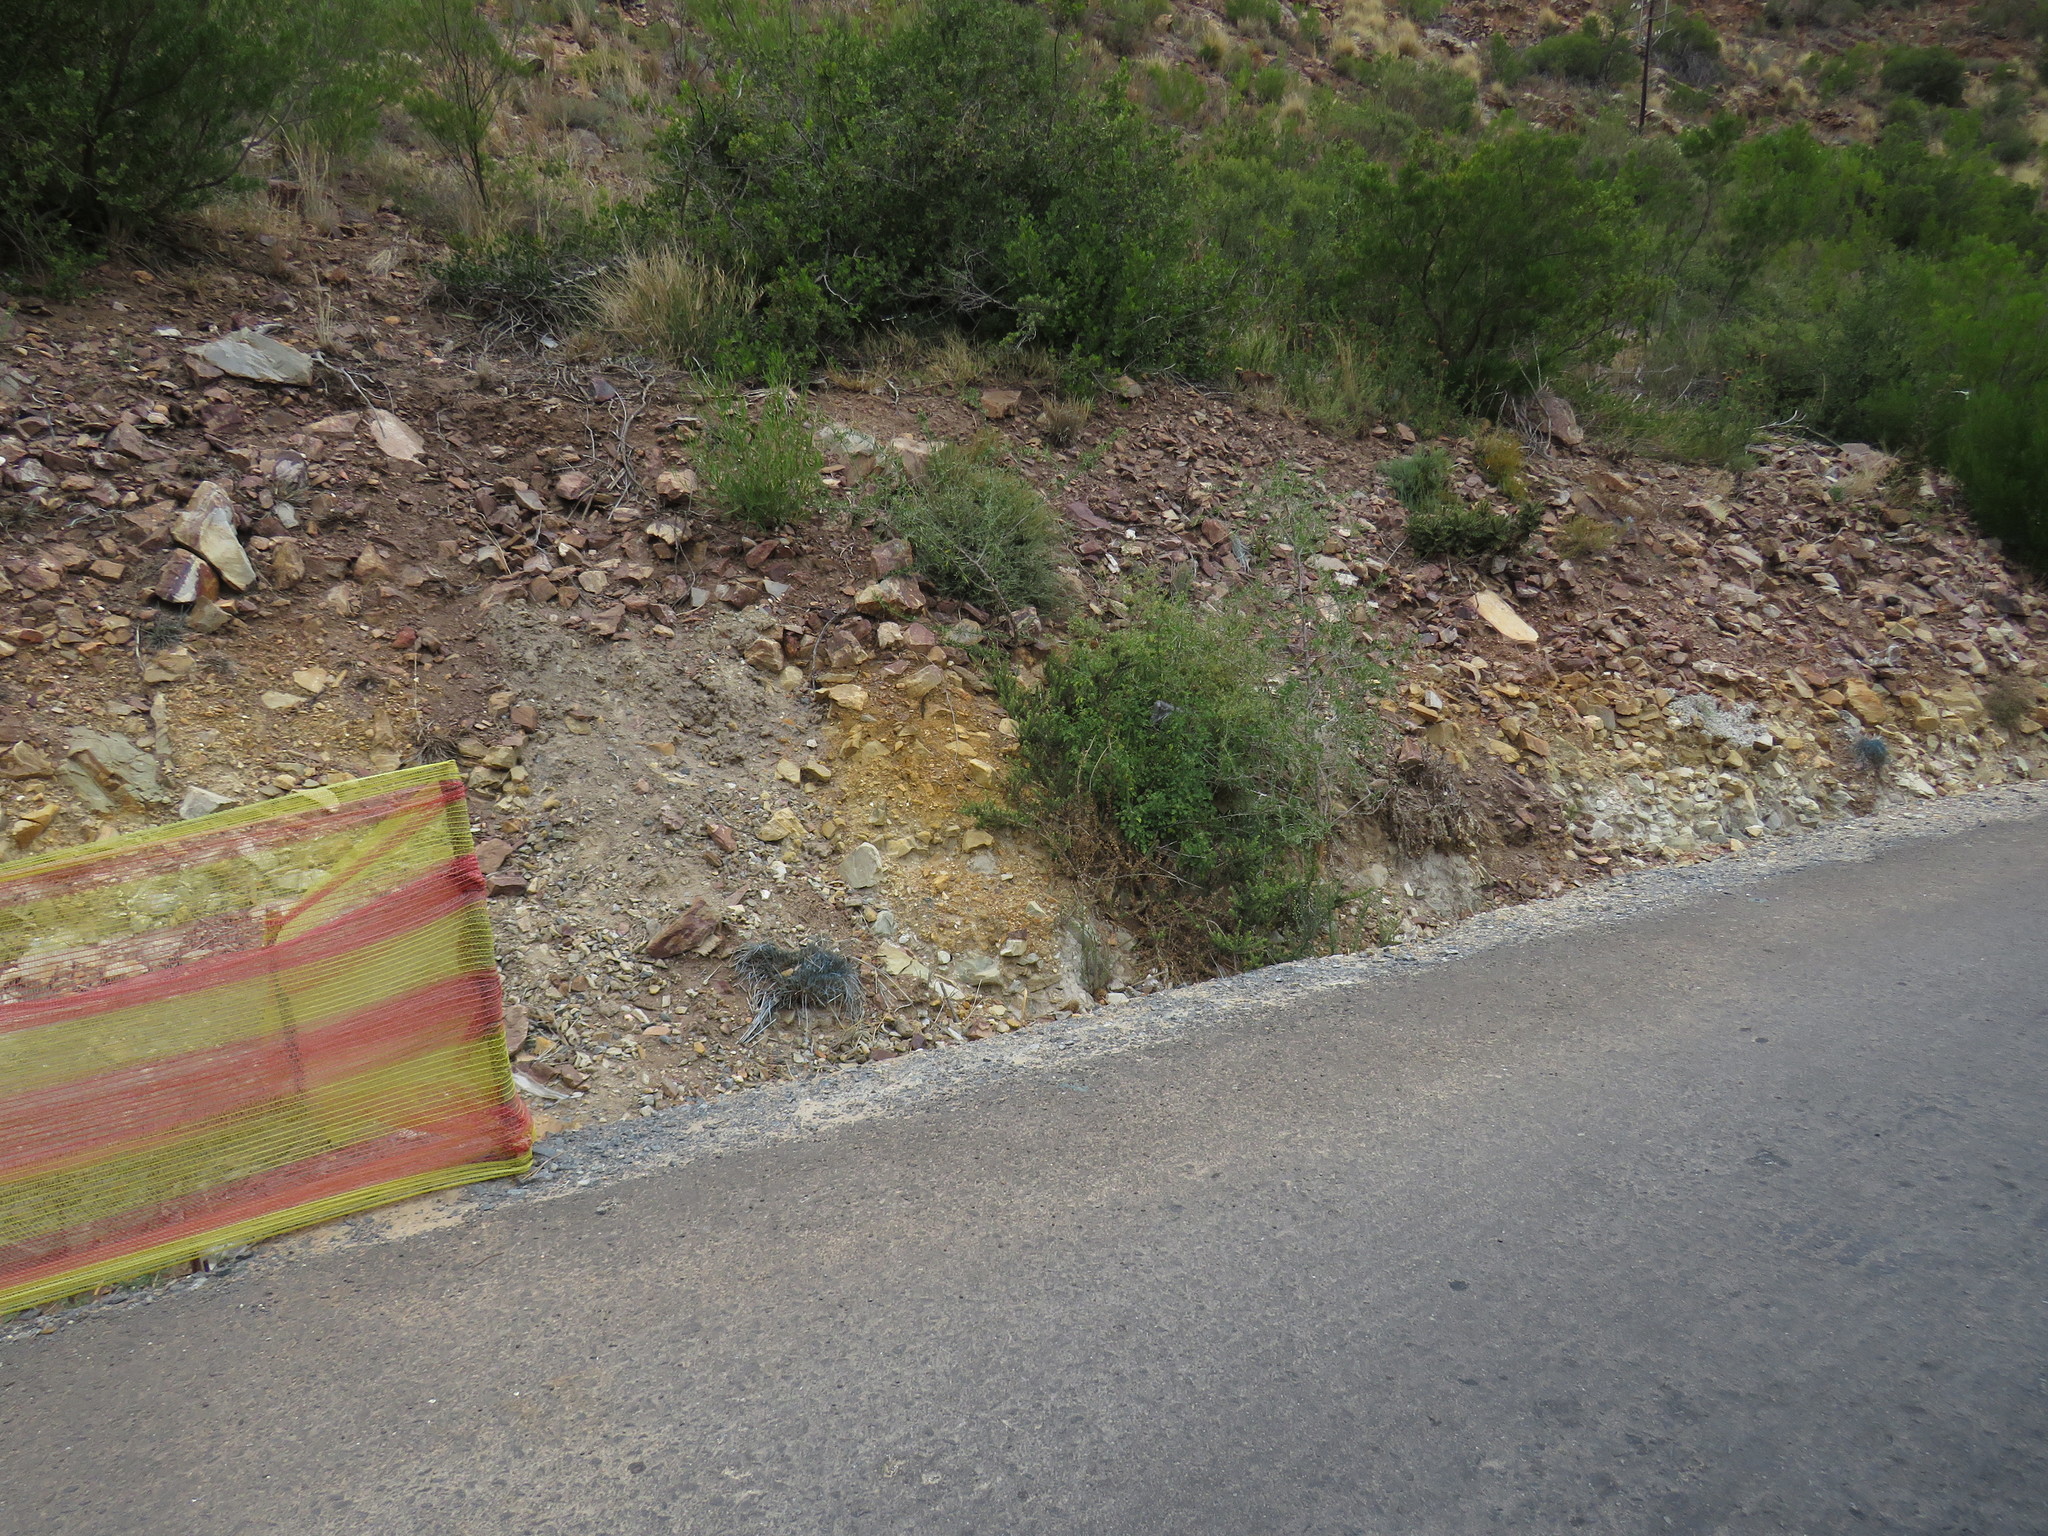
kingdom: Plantae
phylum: Tracheophyta
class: Liliopsida
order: Poales
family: Poaceae
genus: Cenchrus
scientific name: Cenchrus setaceus
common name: Crimson fountaingrass
